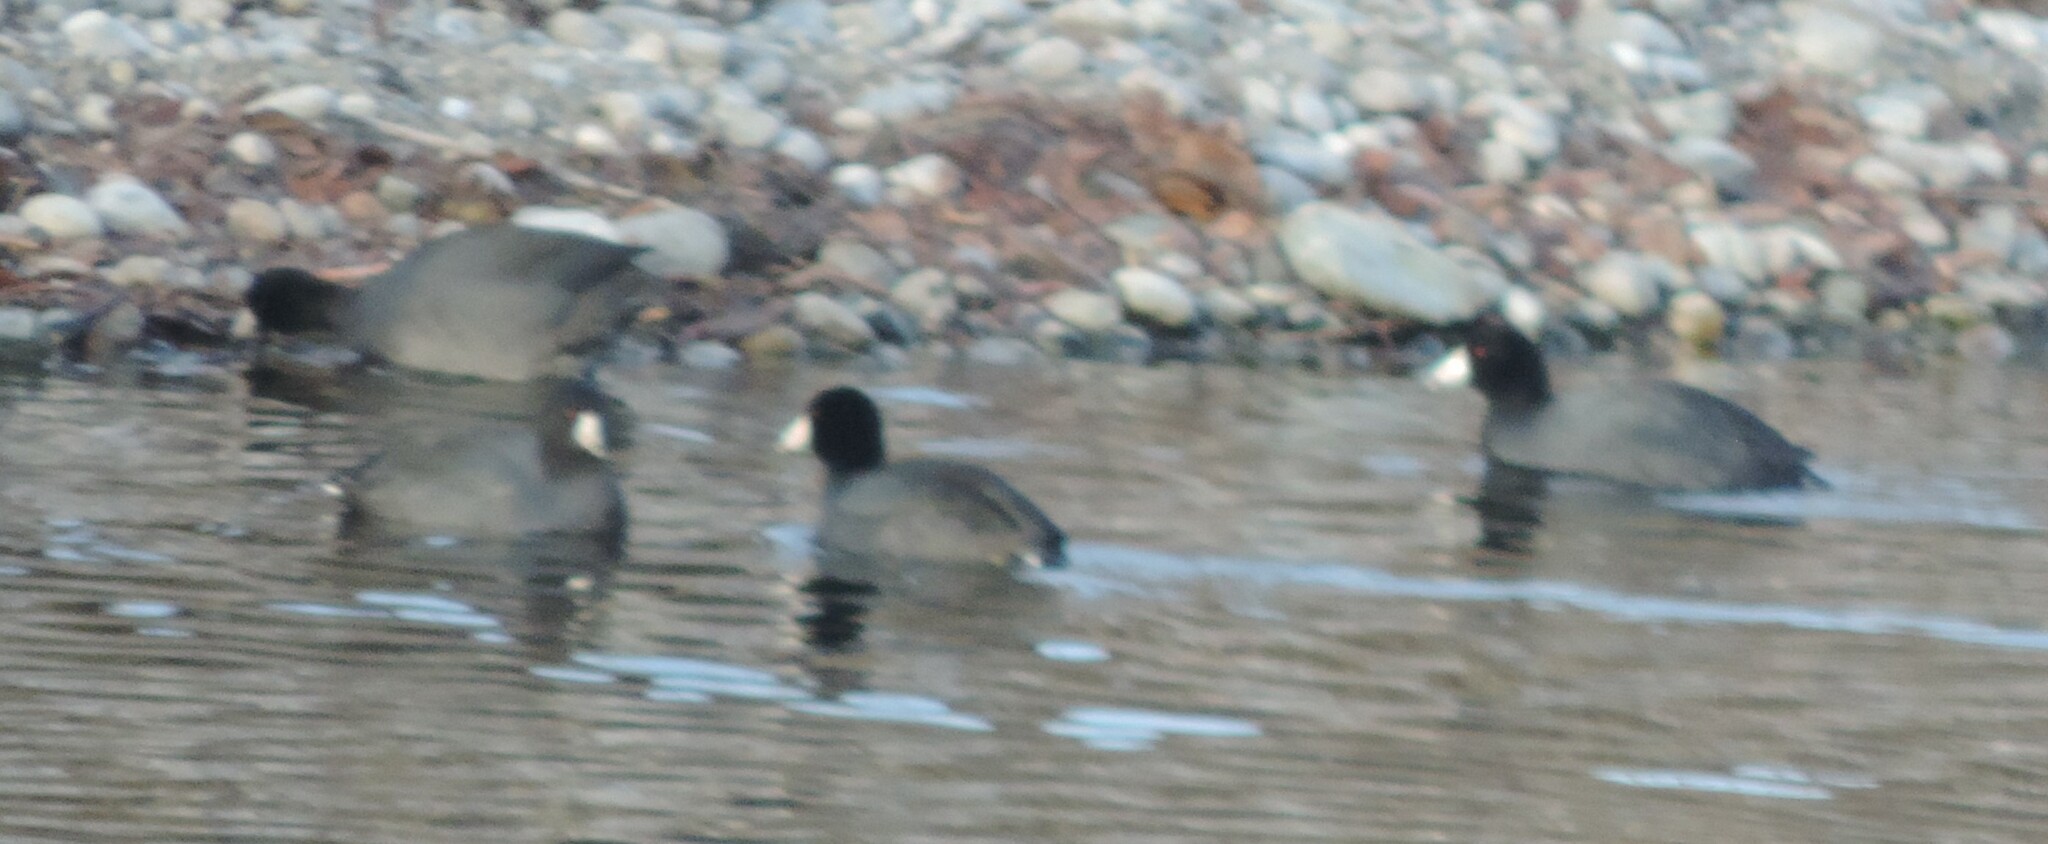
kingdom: Animalia
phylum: Chordata
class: Aves
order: Gruiformes
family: Rallidae
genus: Fulica
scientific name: Fulica americana
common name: American coot
